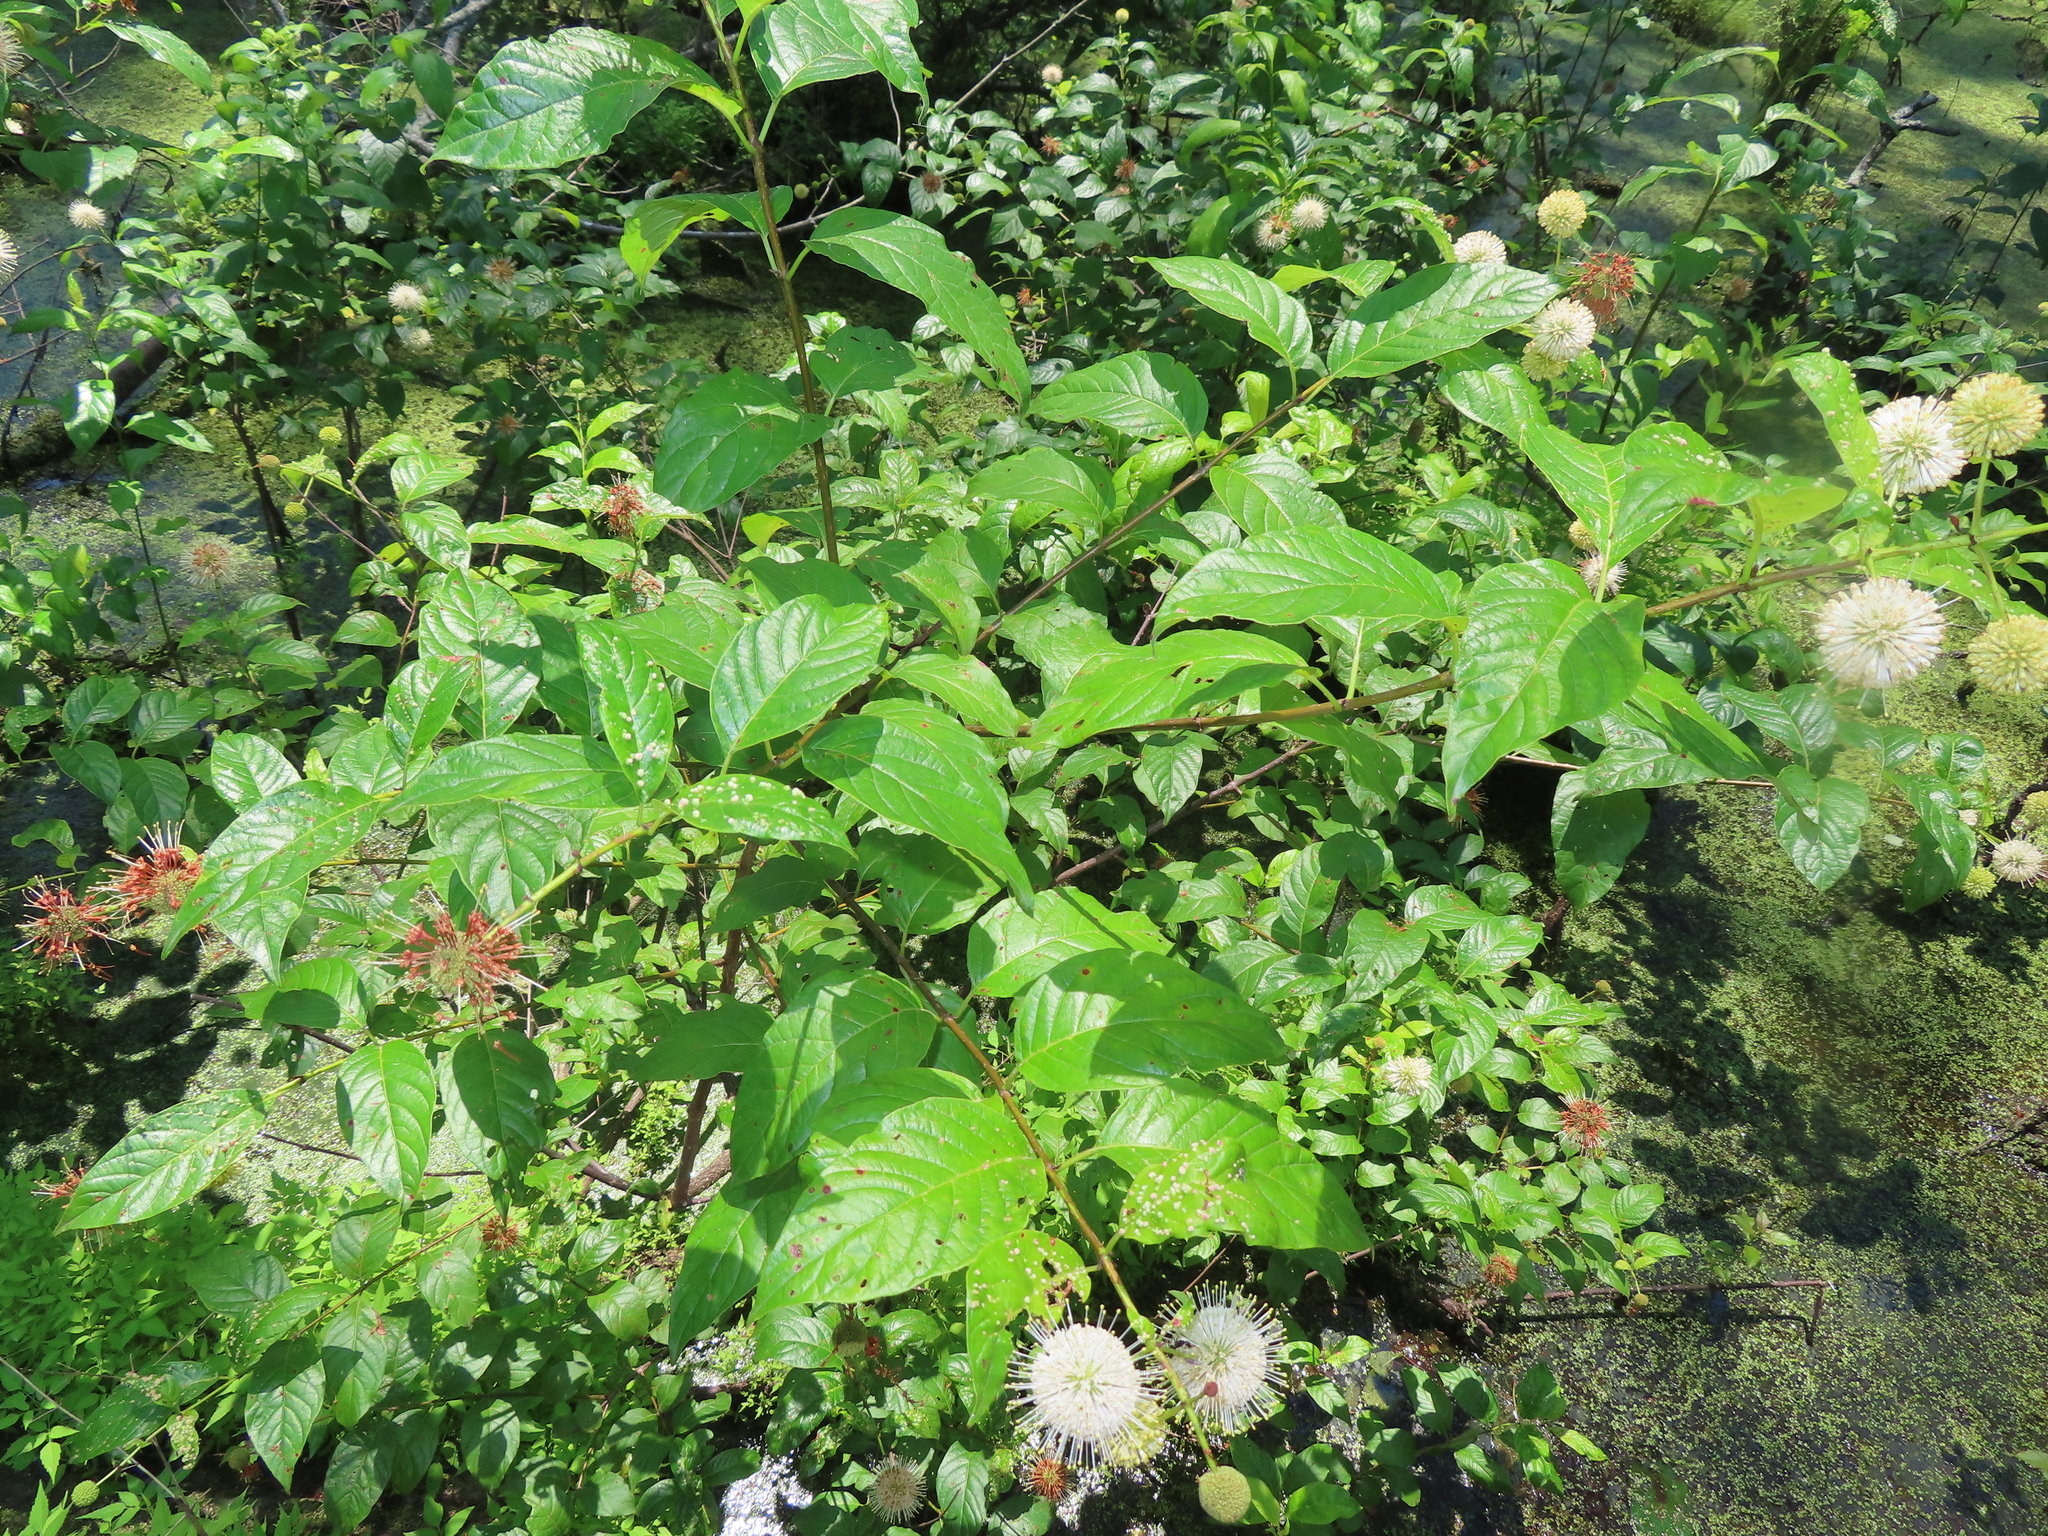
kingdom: Plantae
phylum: Tracheophyta
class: Magnoliopsida
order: Gentianales
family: Rubiaceae
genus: Cephalanthus
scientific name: Cephalanthus occidentalis
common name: Button-willow
